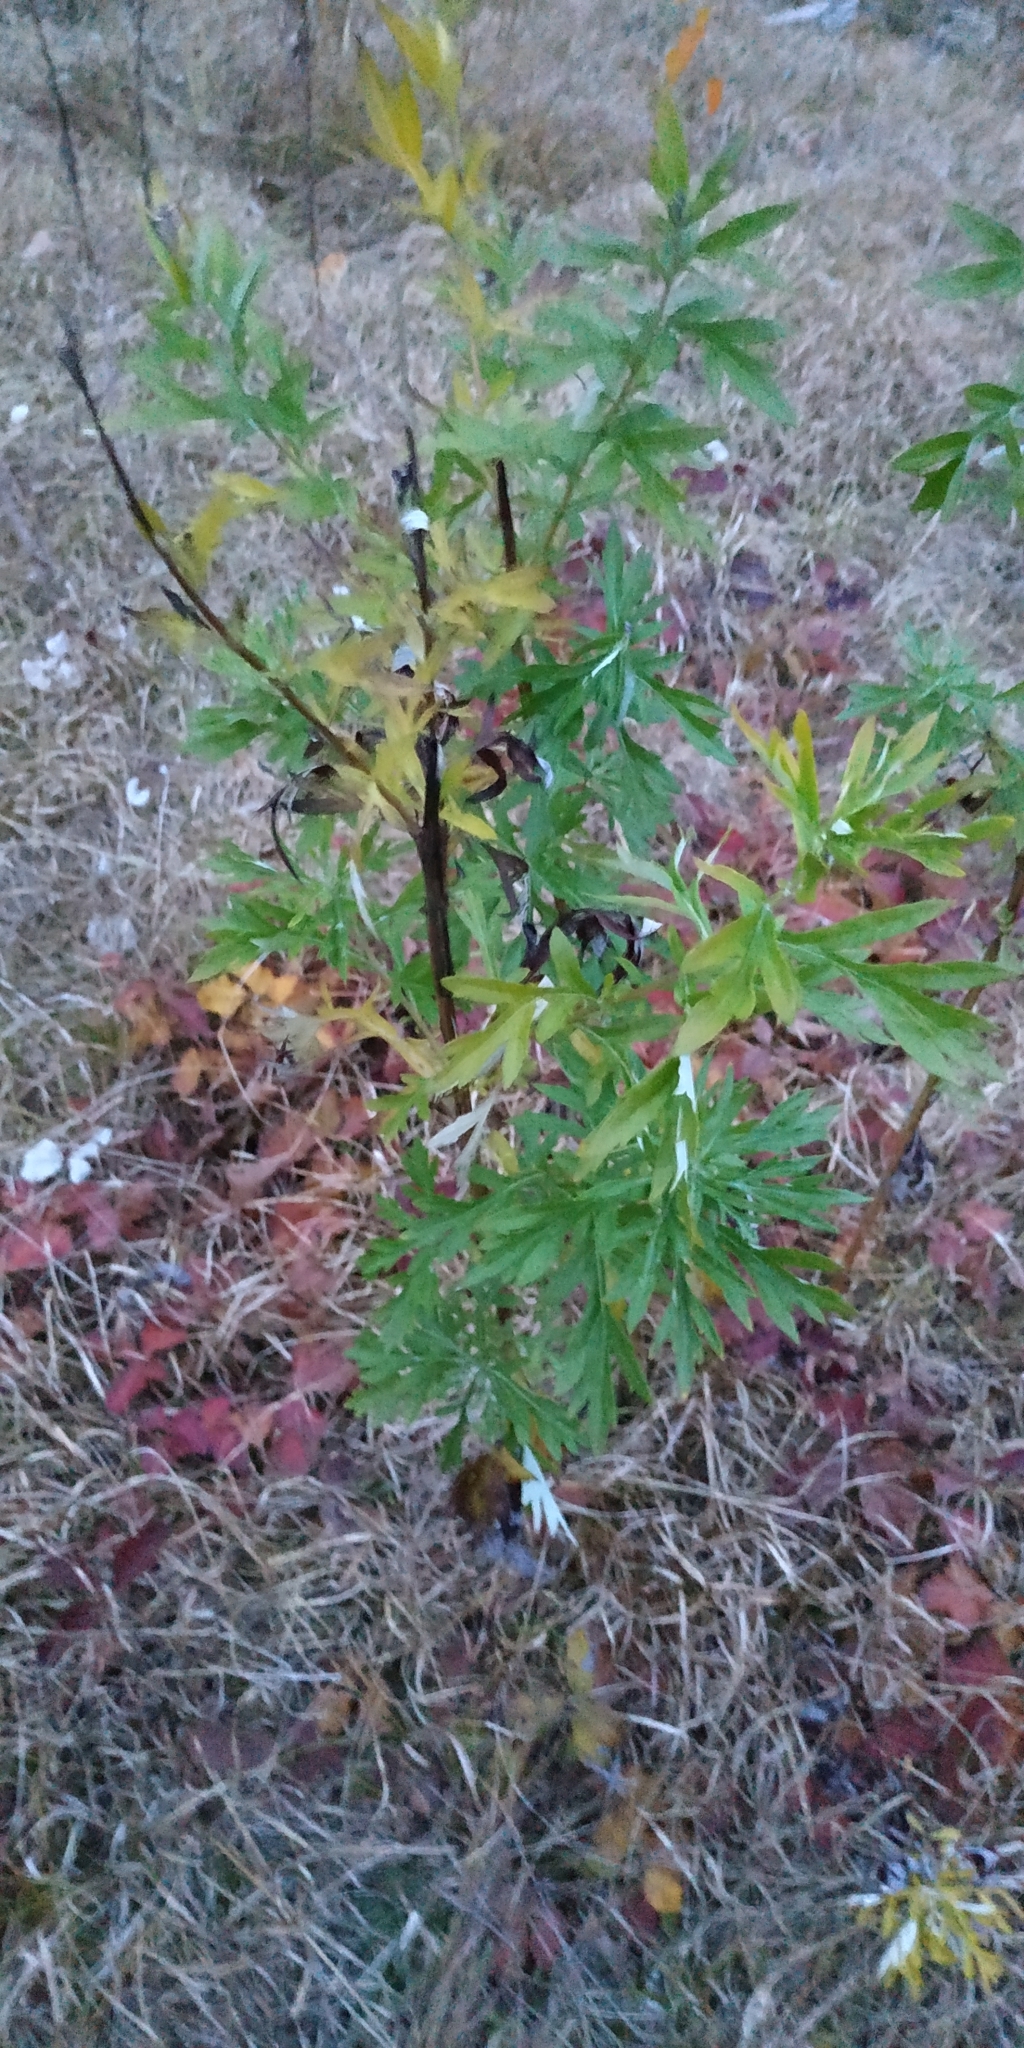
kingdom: Plantae
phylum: Tracheophyta
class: Magnoliopsida
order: Asterales
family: Asteraceae
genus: Artemisia
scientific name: Artemisia vulgaris
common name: Mugwort
